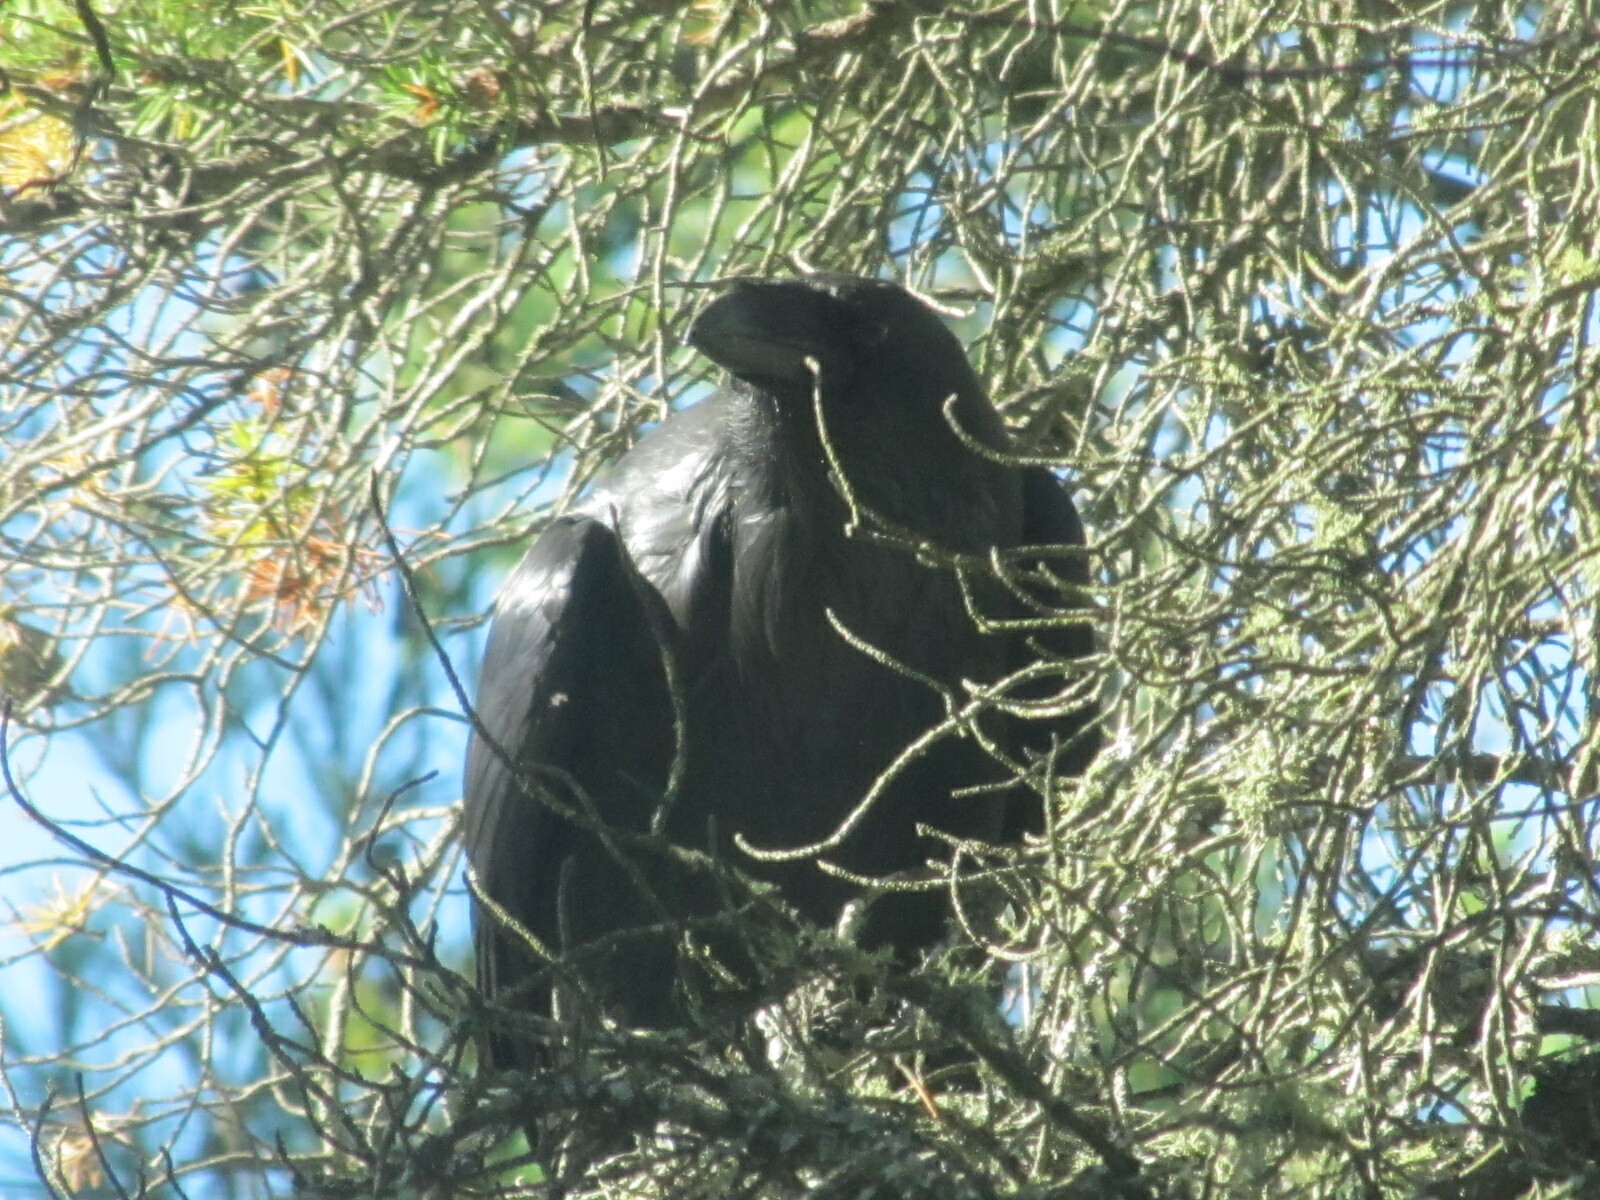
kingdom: Animalia
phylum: Chordata
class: Aves
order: Passeriformes
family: Corvidae
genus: Corvus
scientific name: Corvus corax
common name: Common raven
